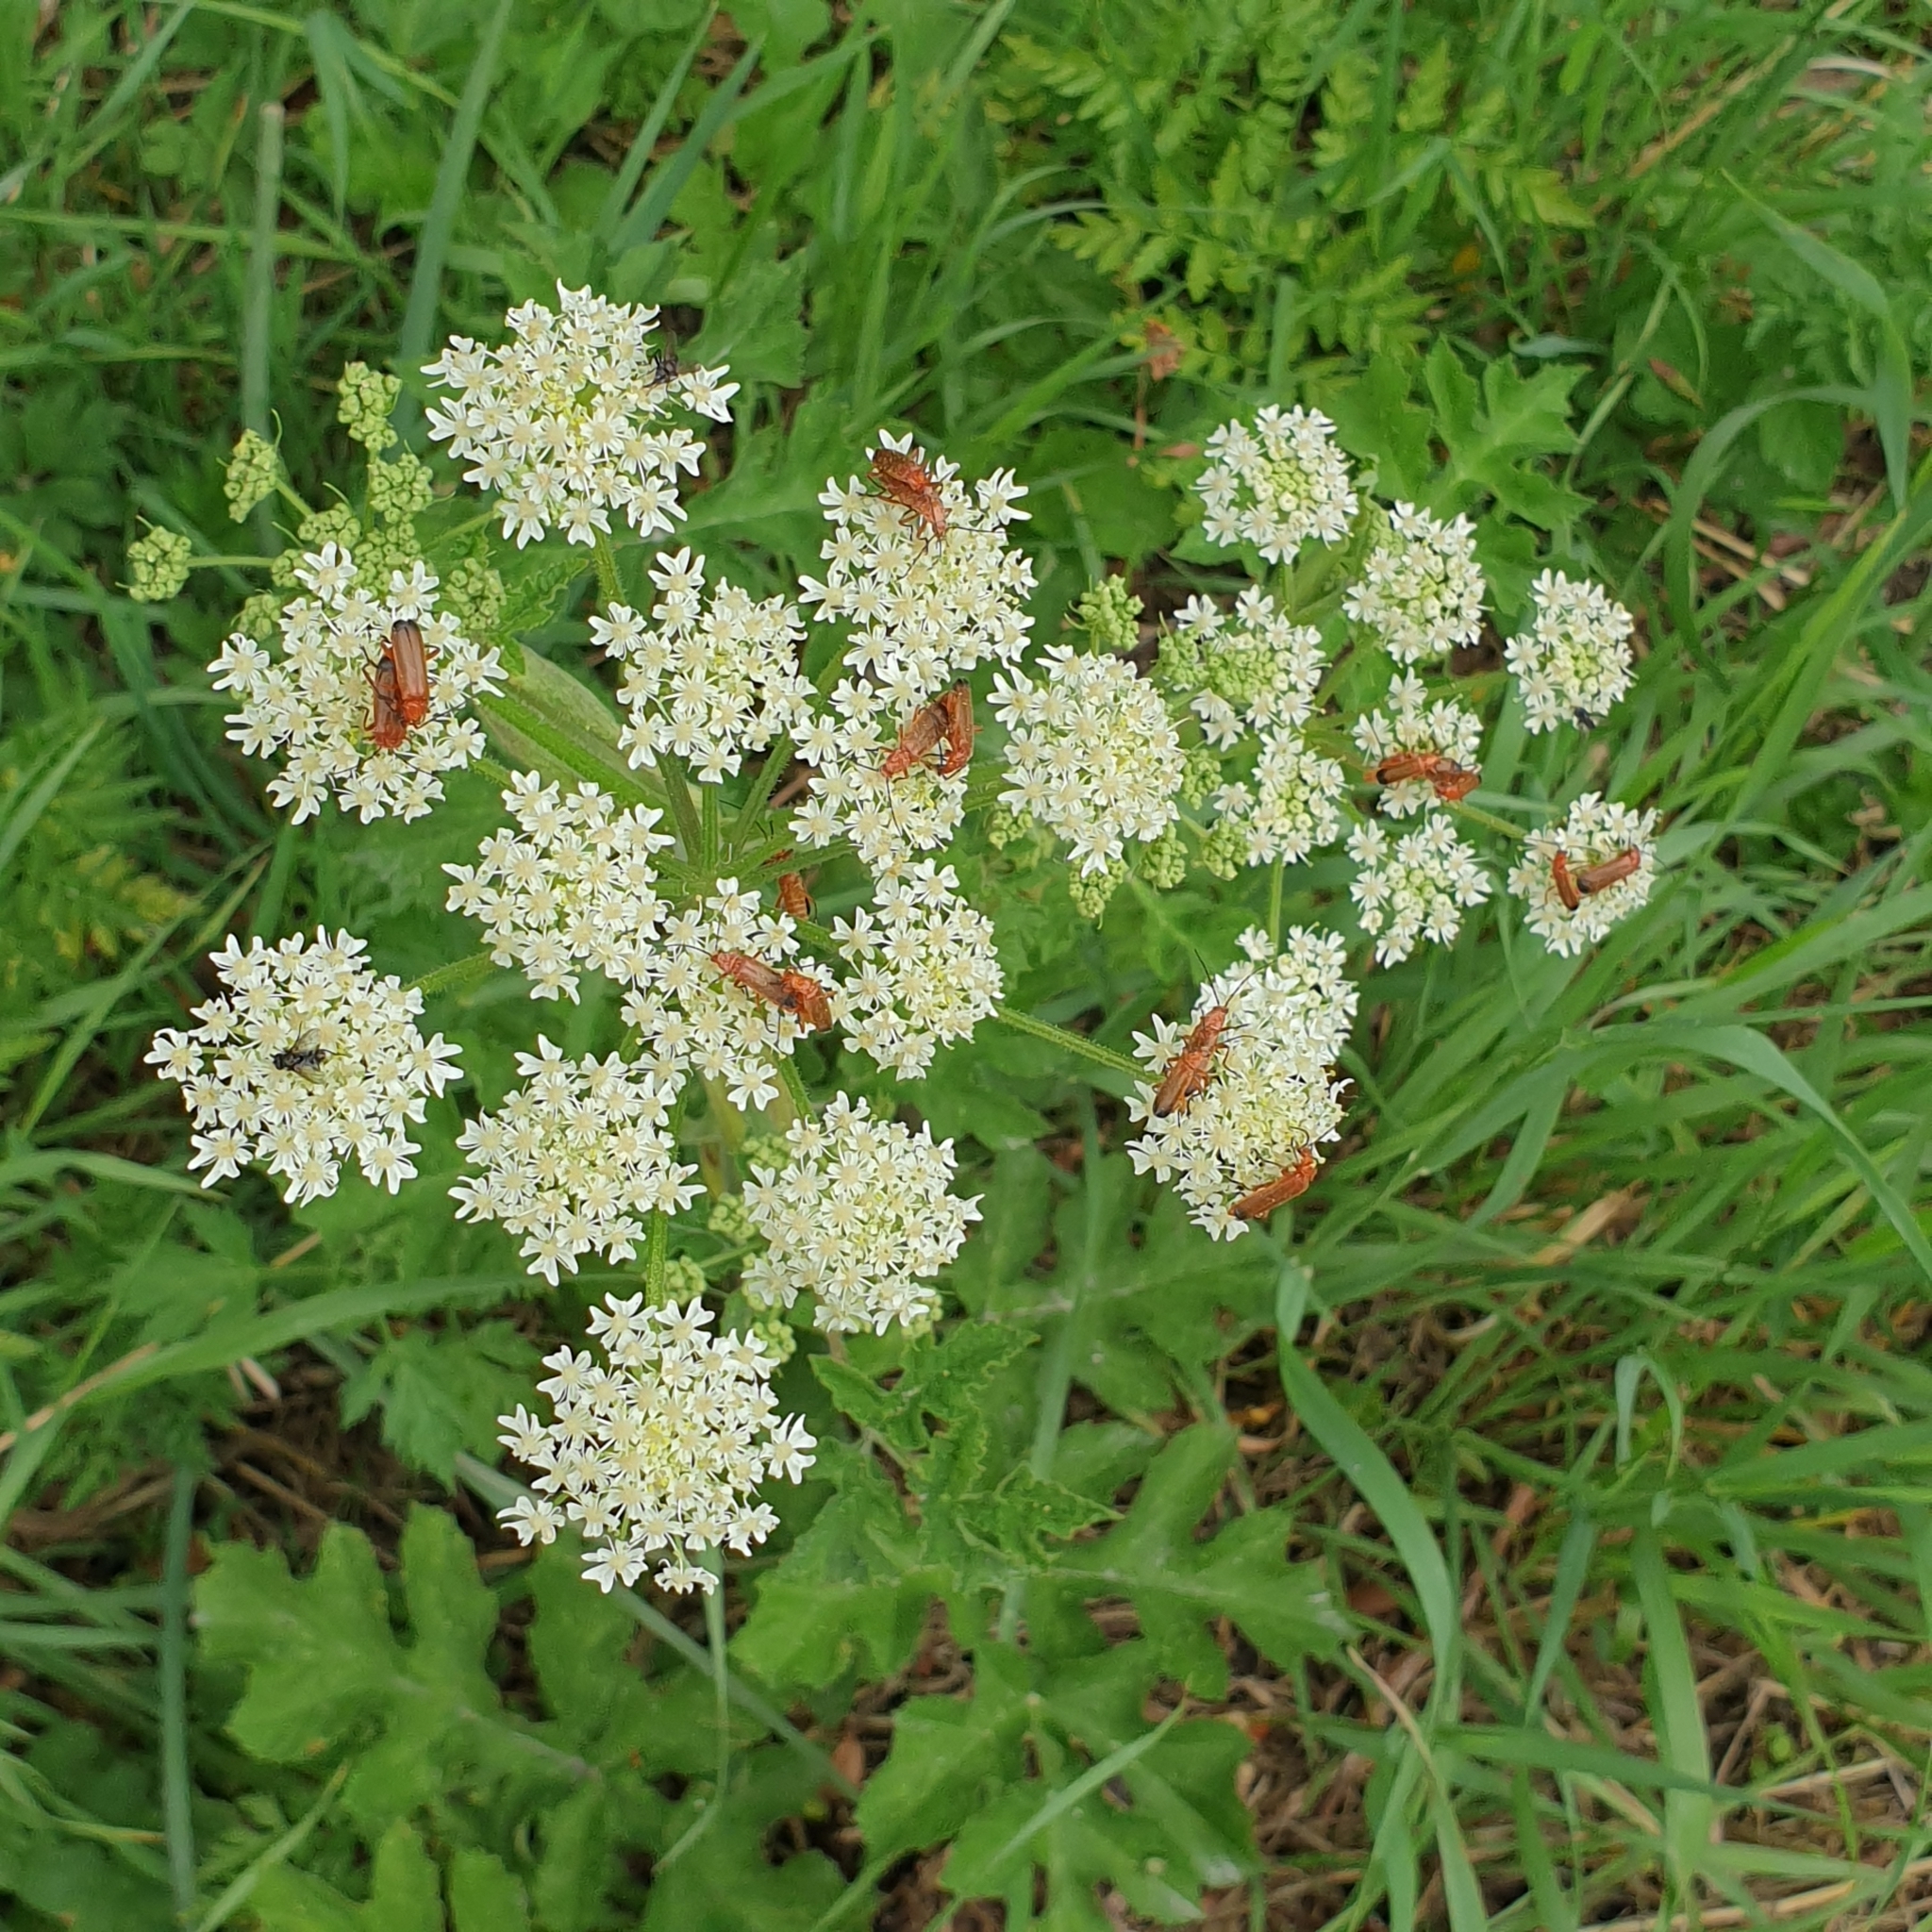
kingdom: Animalia
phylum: Arthropoda
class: Insecta
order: Coleoptera
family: Cantharidae
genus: Rhagonycha
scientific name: Rhagonycha fulva
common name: Common red soldier beetle
